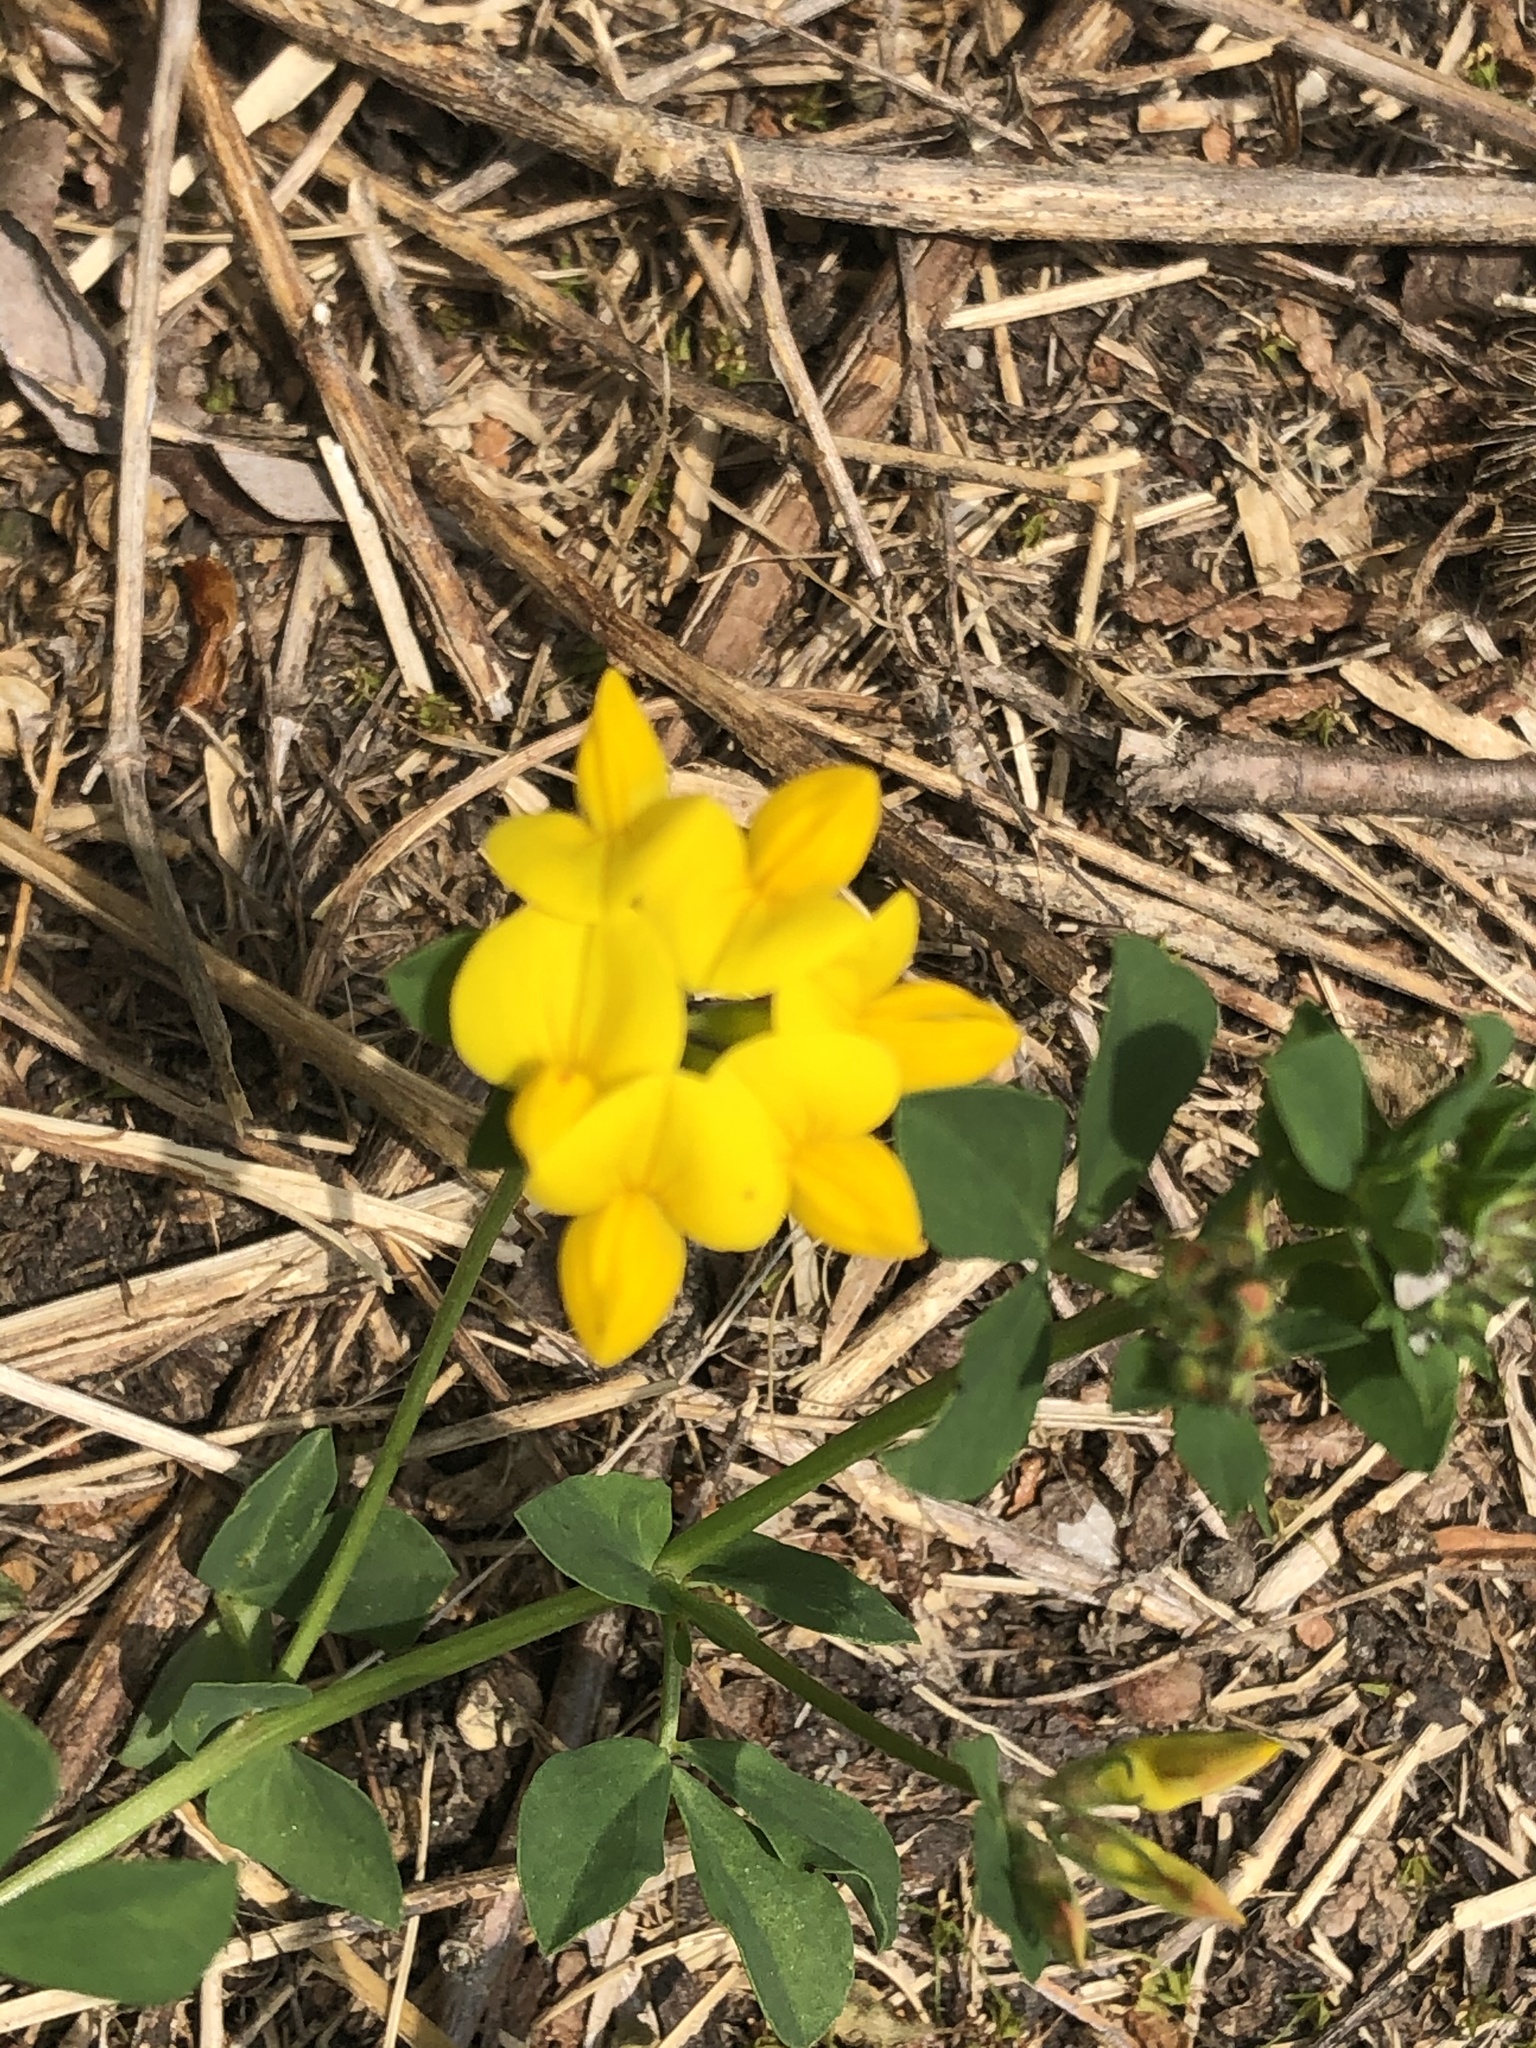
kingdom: Plantae
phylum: Tracheophyta
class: Magnoliopsida
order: Fabales
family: Fabaceae
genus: Lotus
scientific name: Lotus corniculatus
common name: Common bird's-foot-trefoil
